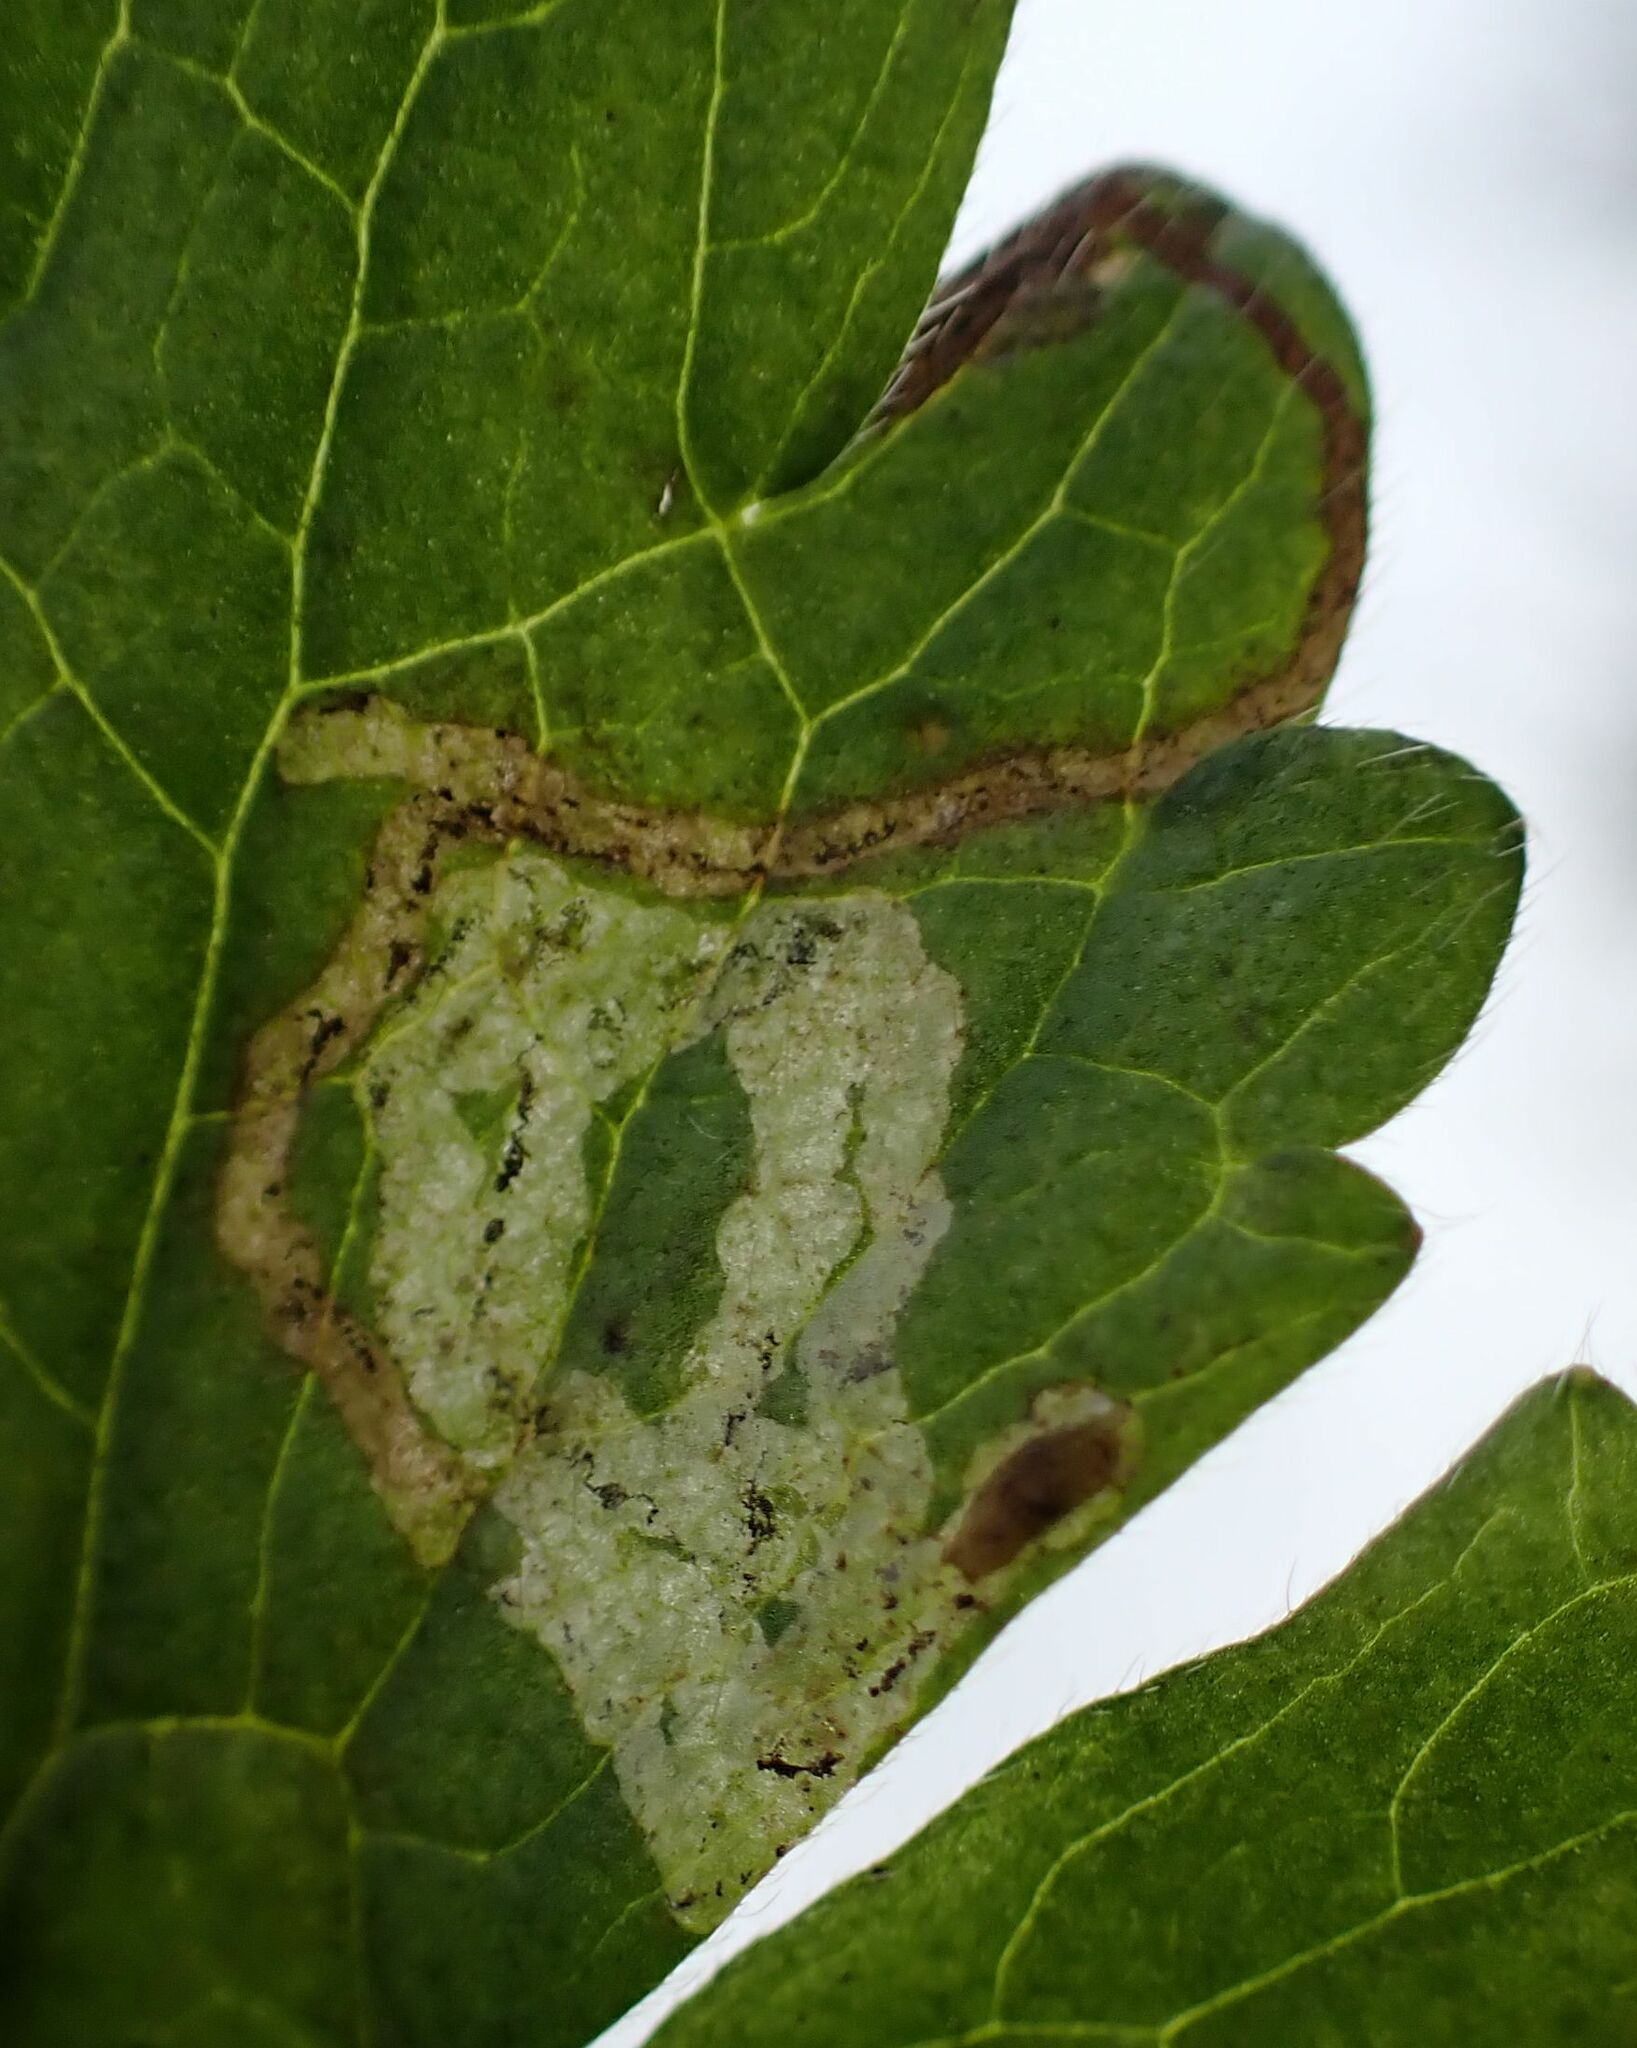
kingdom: Animalia
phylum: Arthropoda
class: Insecta
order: Diptera
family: Agromyzidae
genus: Phytomyza
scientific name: Phytomyza ranunculi
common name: Leaf-miner fly
